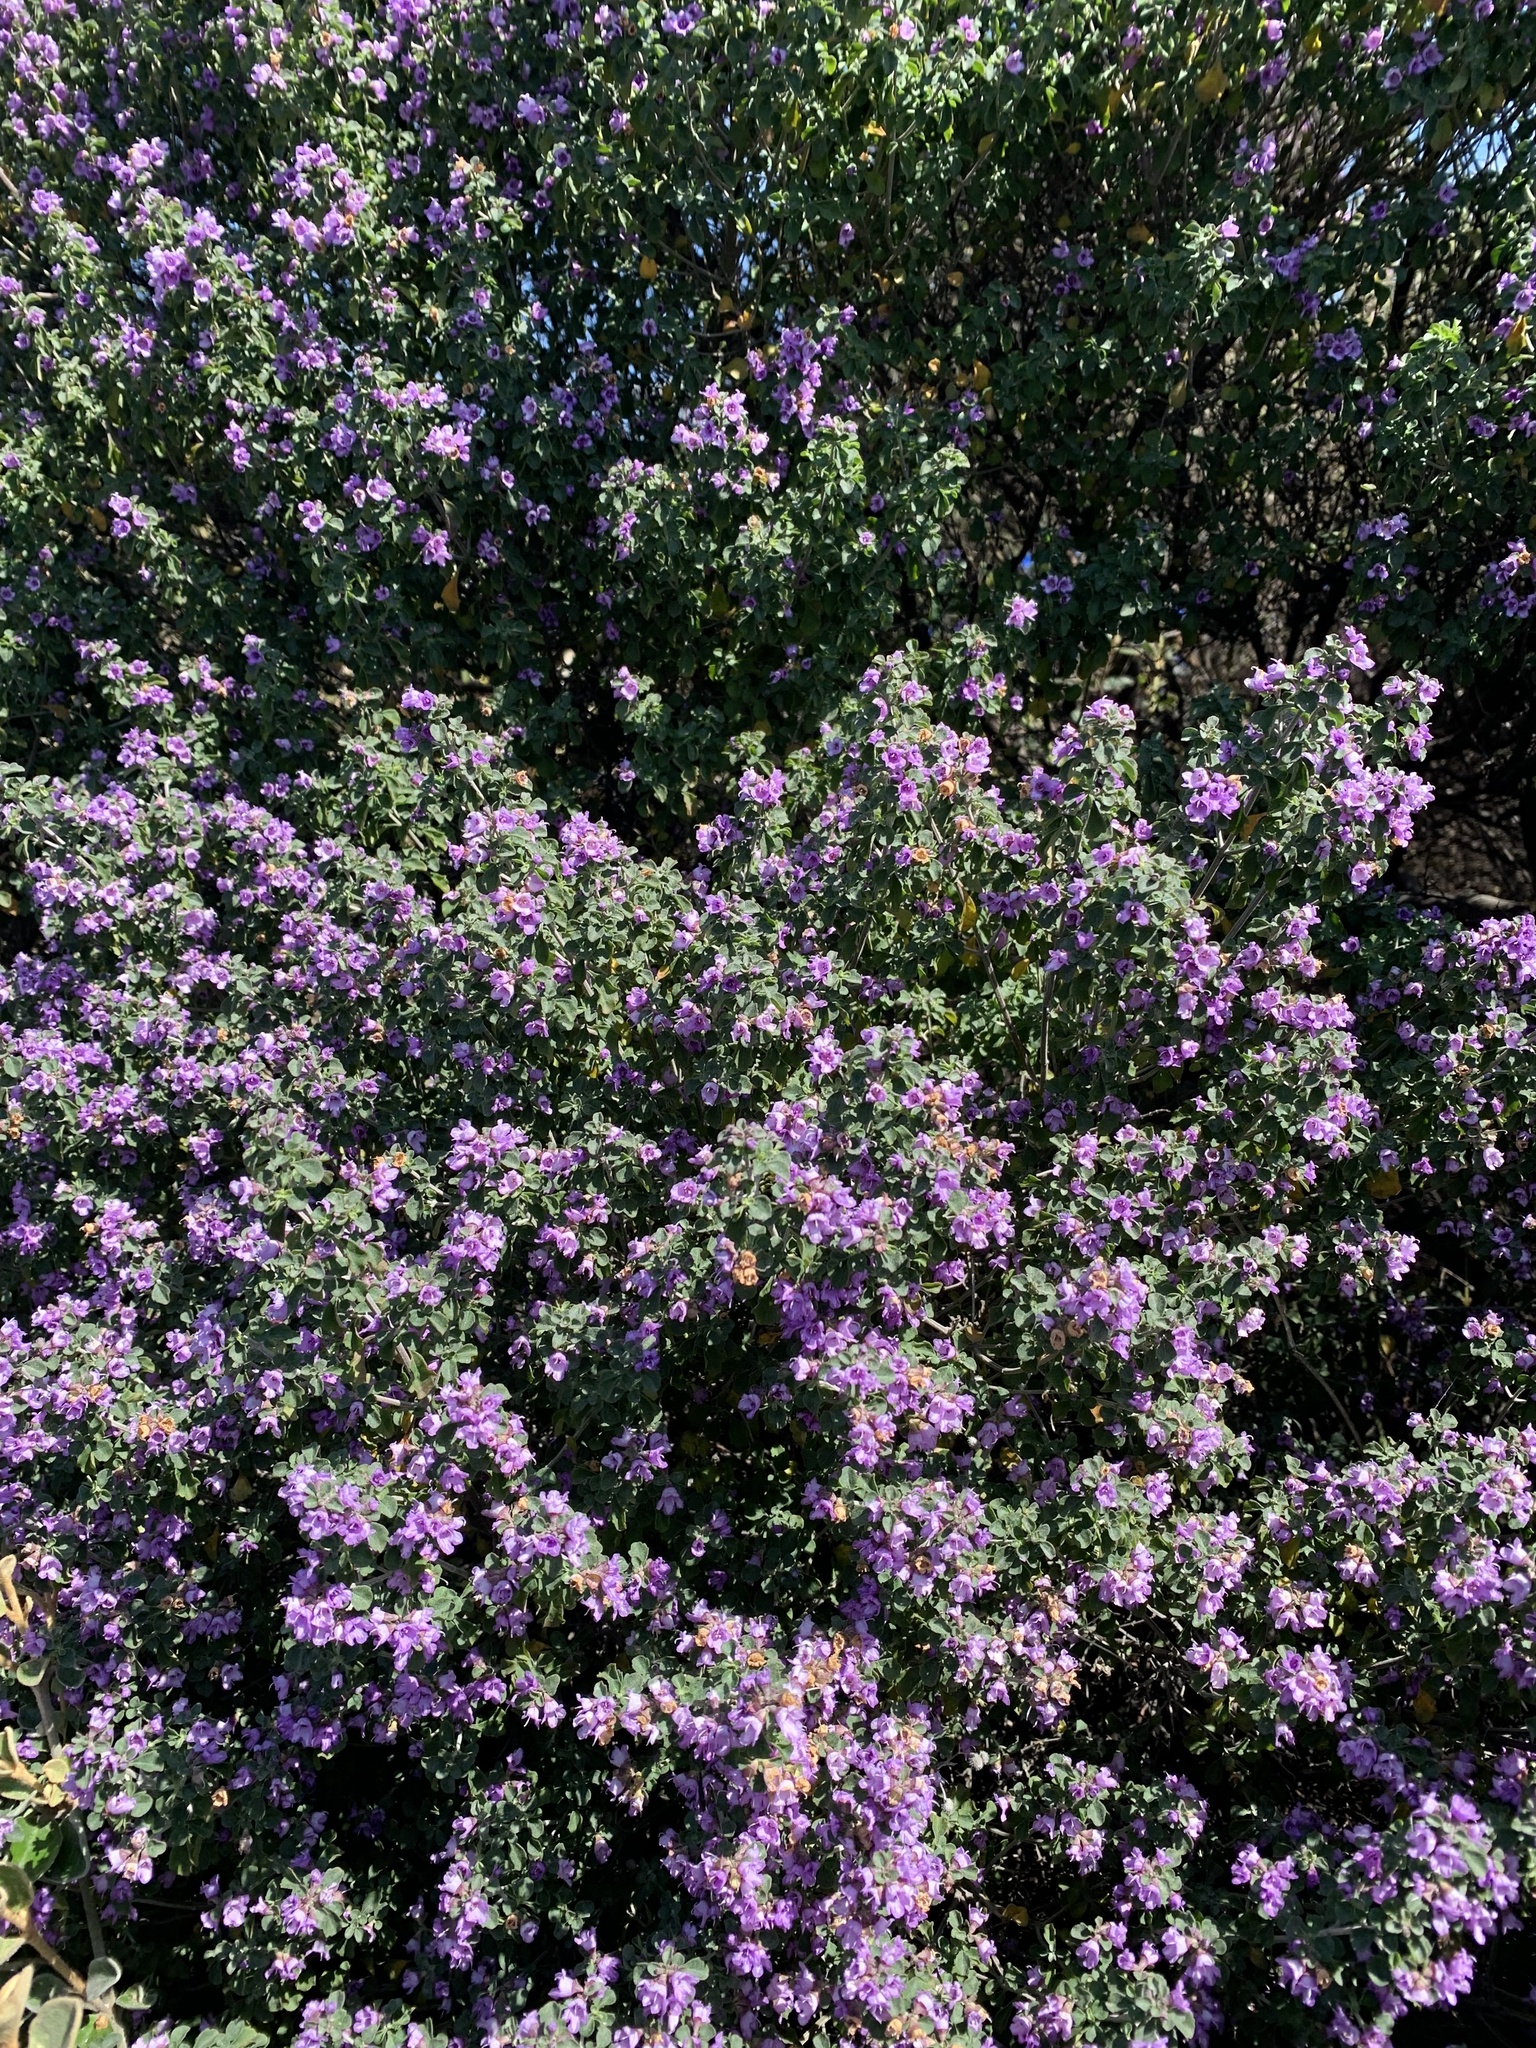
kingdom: Plantae
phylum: Tracheophyta
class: Magnoliopsida
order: Lamiales
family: Lamiaceae
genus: Prostanthera
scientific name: Prostanthera rotundifolia
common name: Round-leaf mintbush
